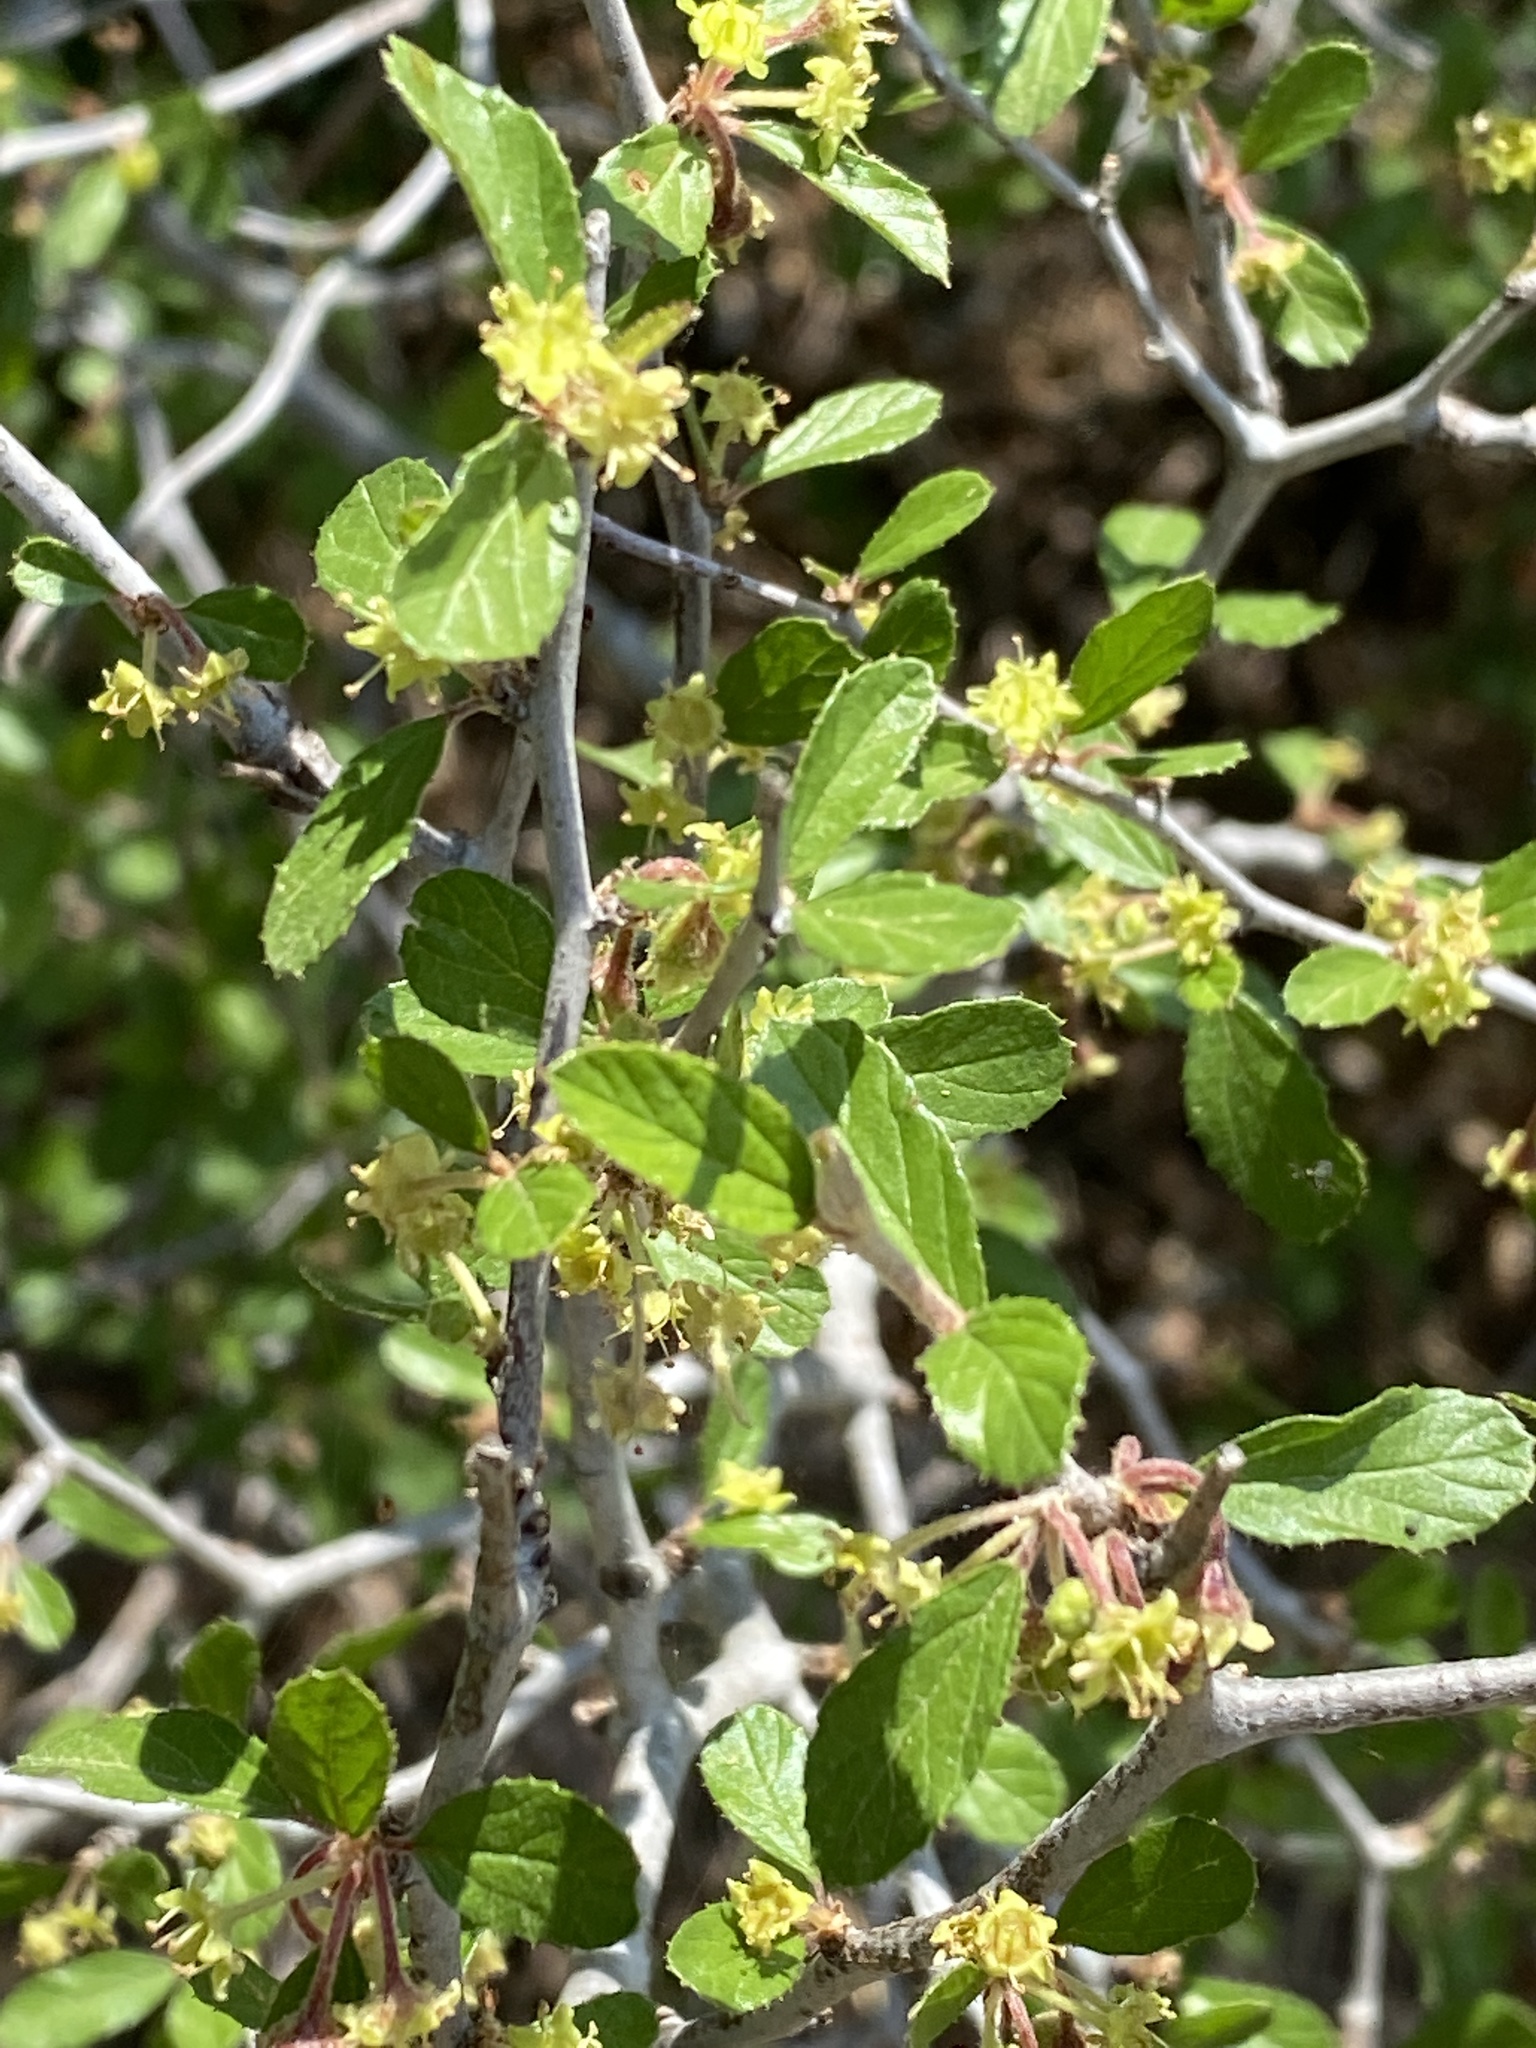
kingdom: Plantae
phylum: Tracheophyta
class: Magnoliopsida
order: Rosales
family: Rhamnaceae
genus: Colubrina
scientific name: Colubrina texensis
